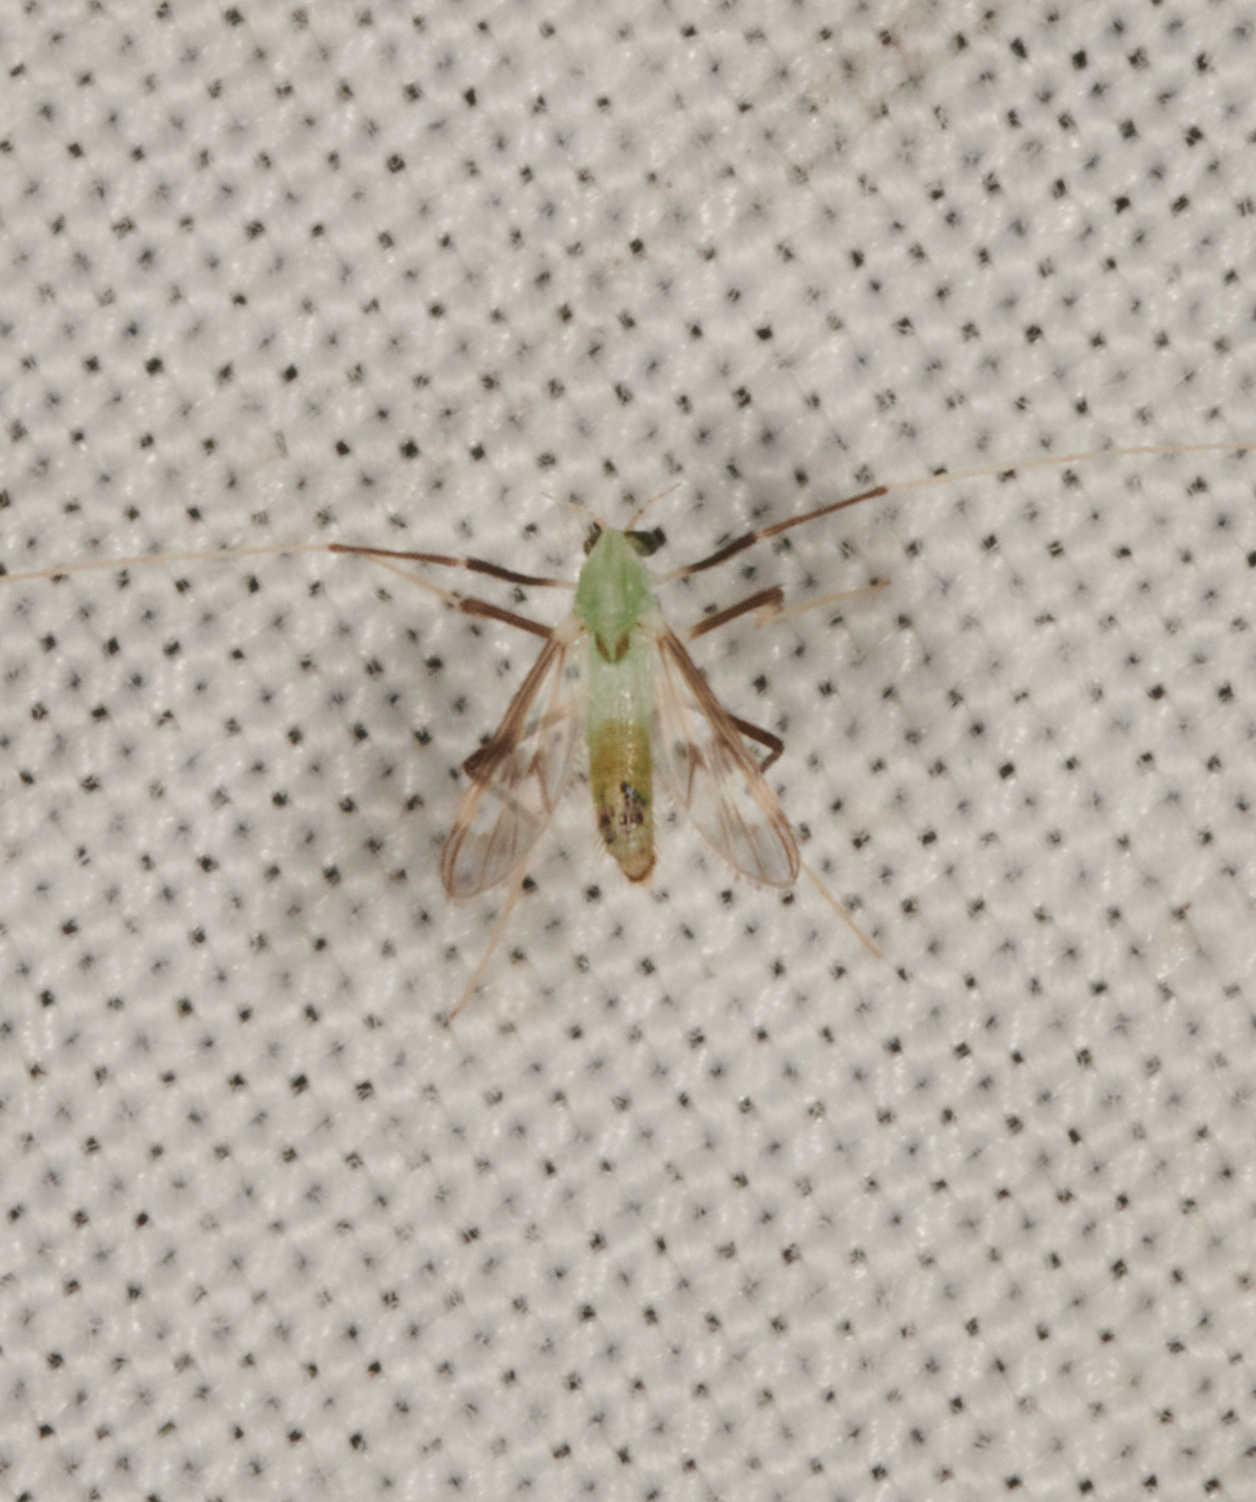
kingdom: Animalia
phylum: Arthropoda
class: Insecta
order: Diptera
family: Chironomidae
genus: Stenochironomus
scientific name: Stenochironomus hilaris
